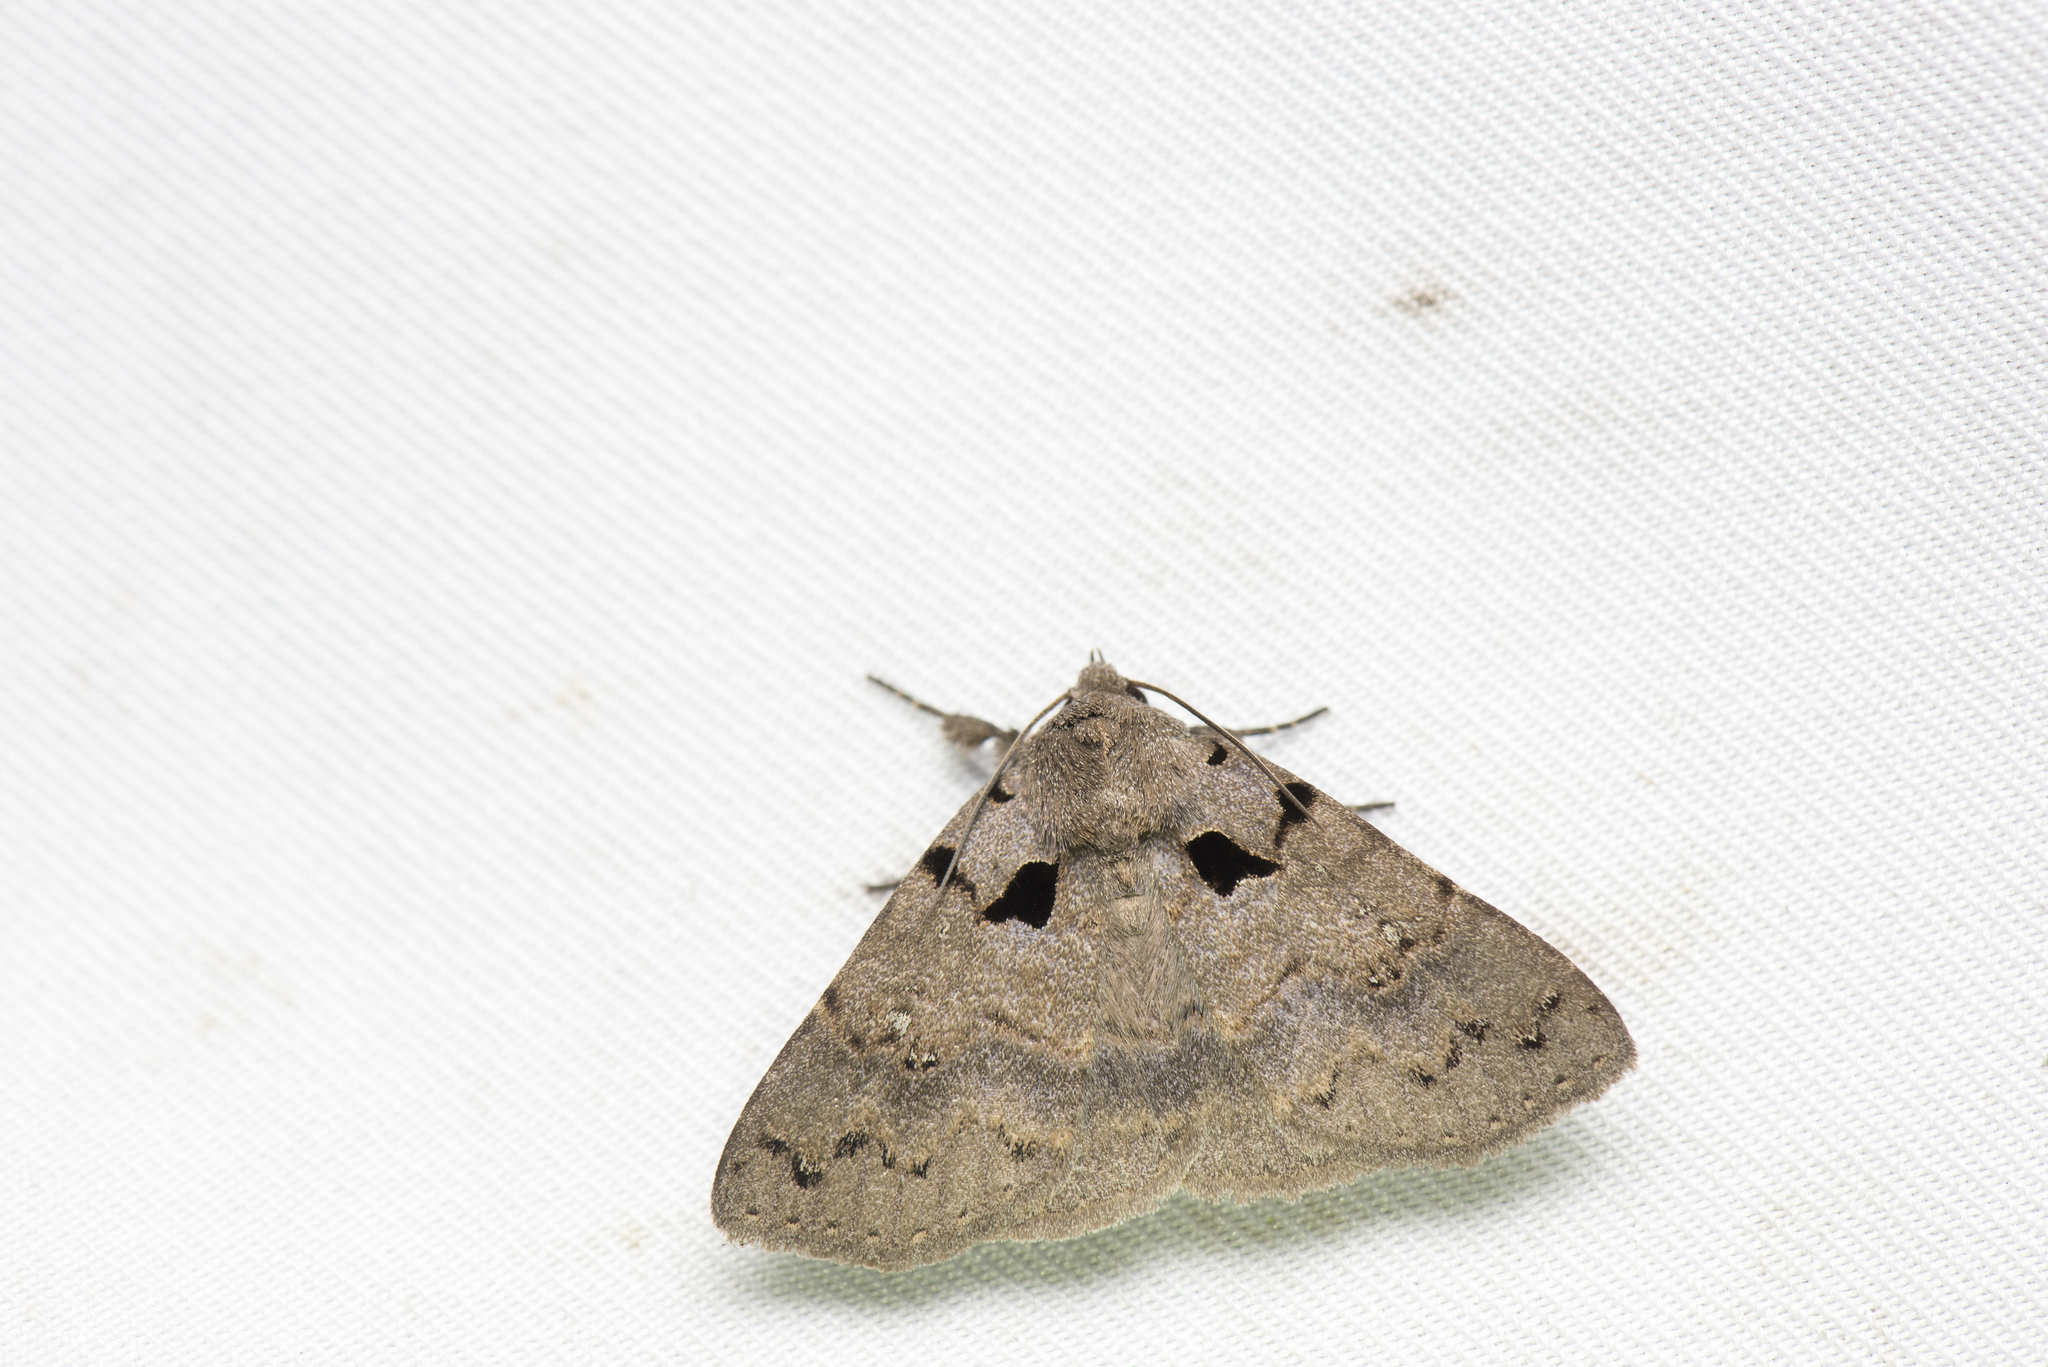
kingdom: Animalia
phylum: Arthropoda
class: Insecta
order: Lepidoptera
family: Erebidae
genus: Avatha
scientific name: Avatha bipartita
